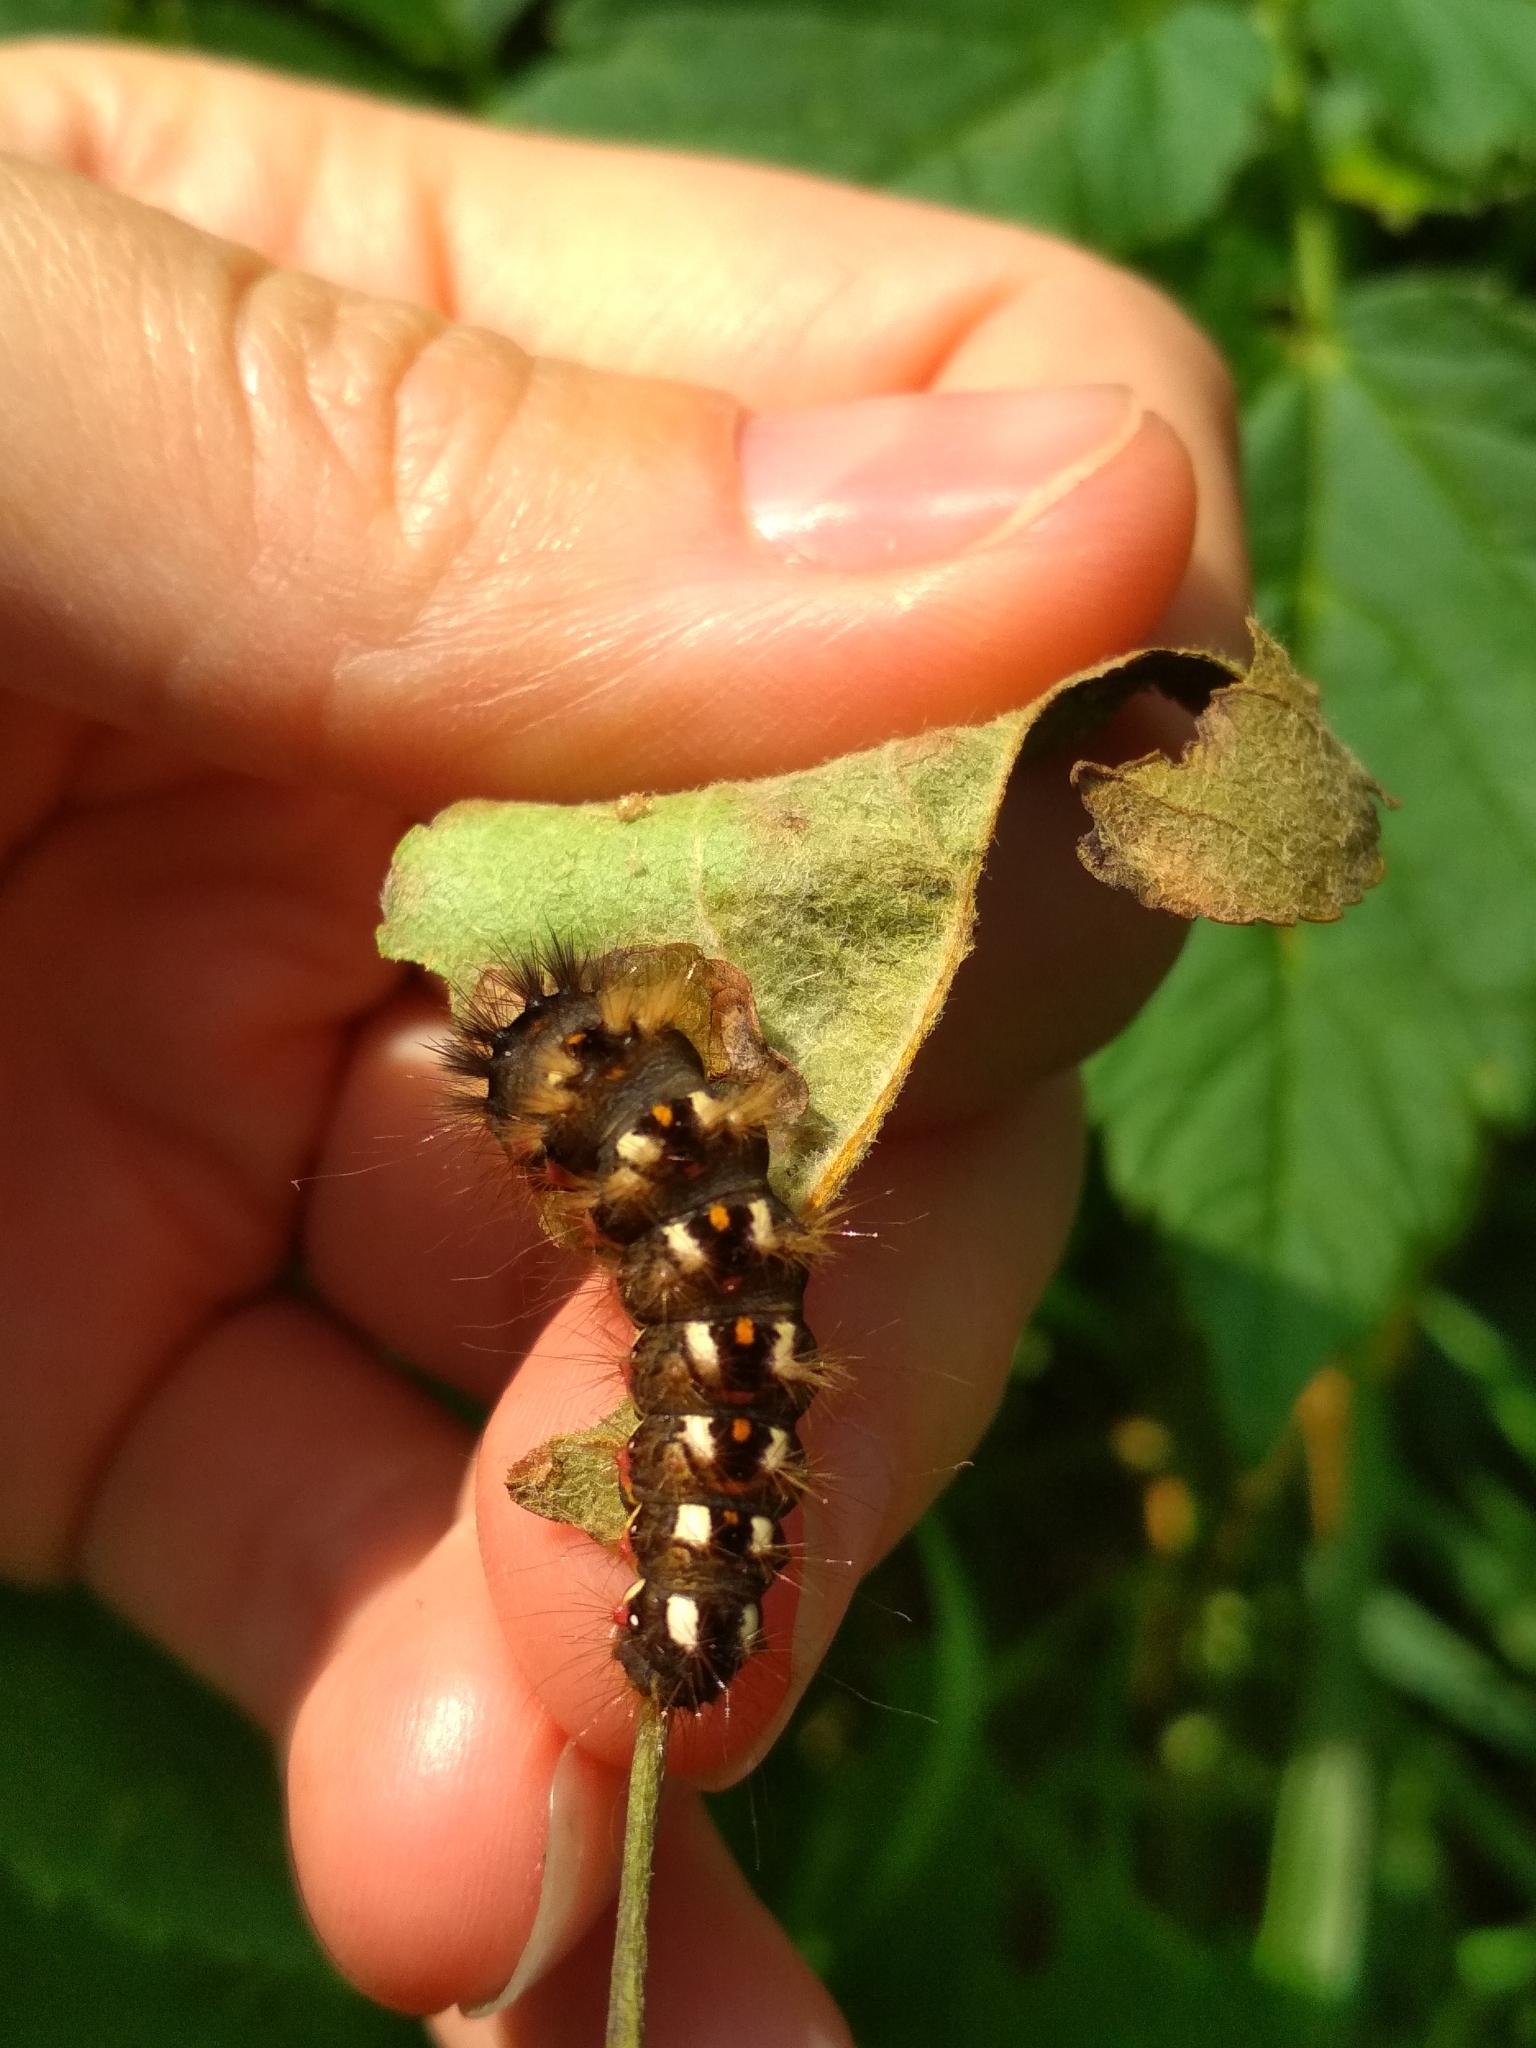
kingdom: Animalia
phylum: Arthropoda
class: Insecta
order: Lepidoptera
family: Noctuidae
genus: Acronicta
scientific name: Acronicta rumicis
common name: Knot grass
